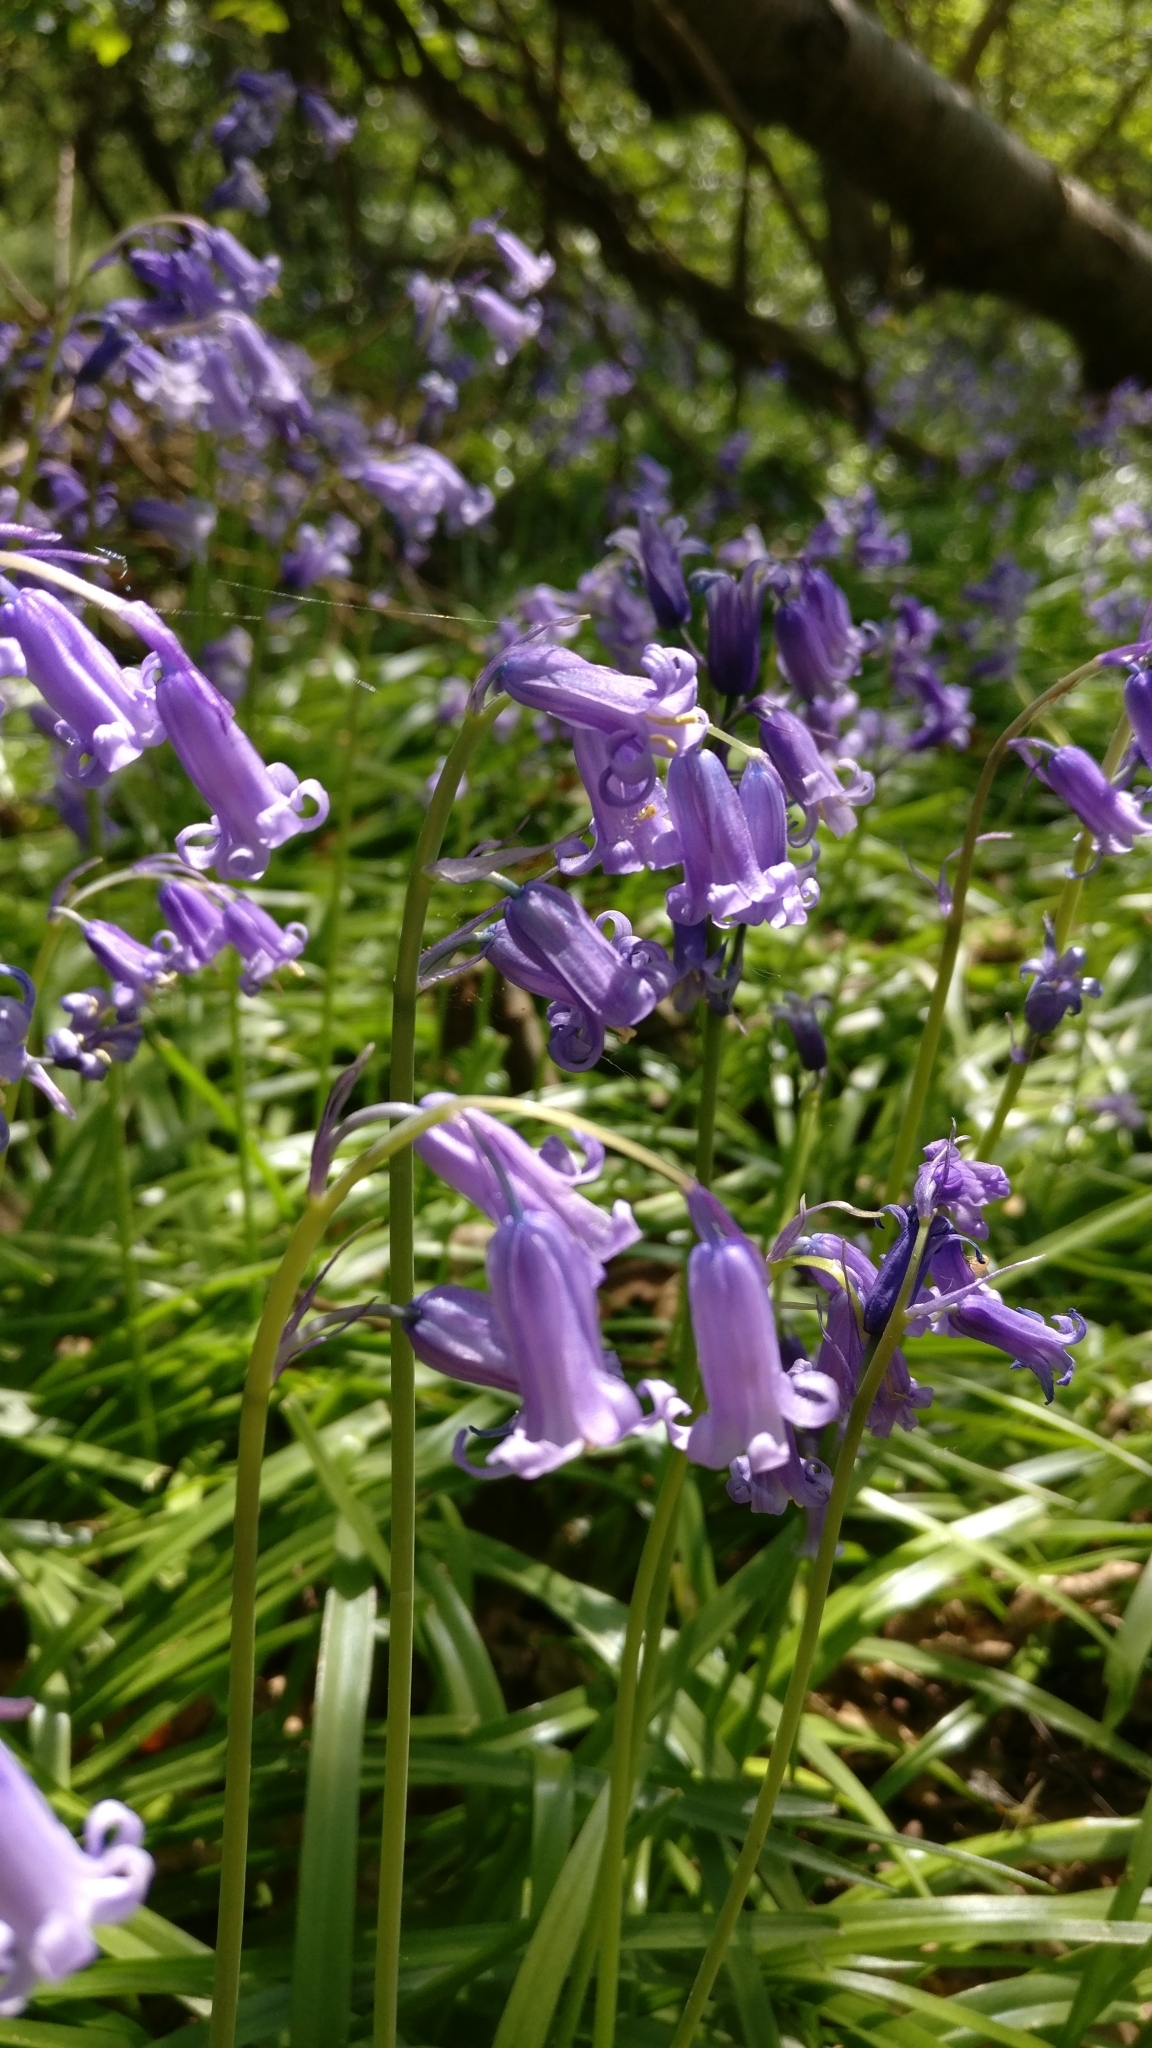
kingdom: Plantae
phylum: Tracheophyta
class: Liliopsida
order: Asparagales
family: Asparagaceae
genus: Hyacinthoides
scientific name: Hyacinthoides non-scripta
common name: Bluebell
